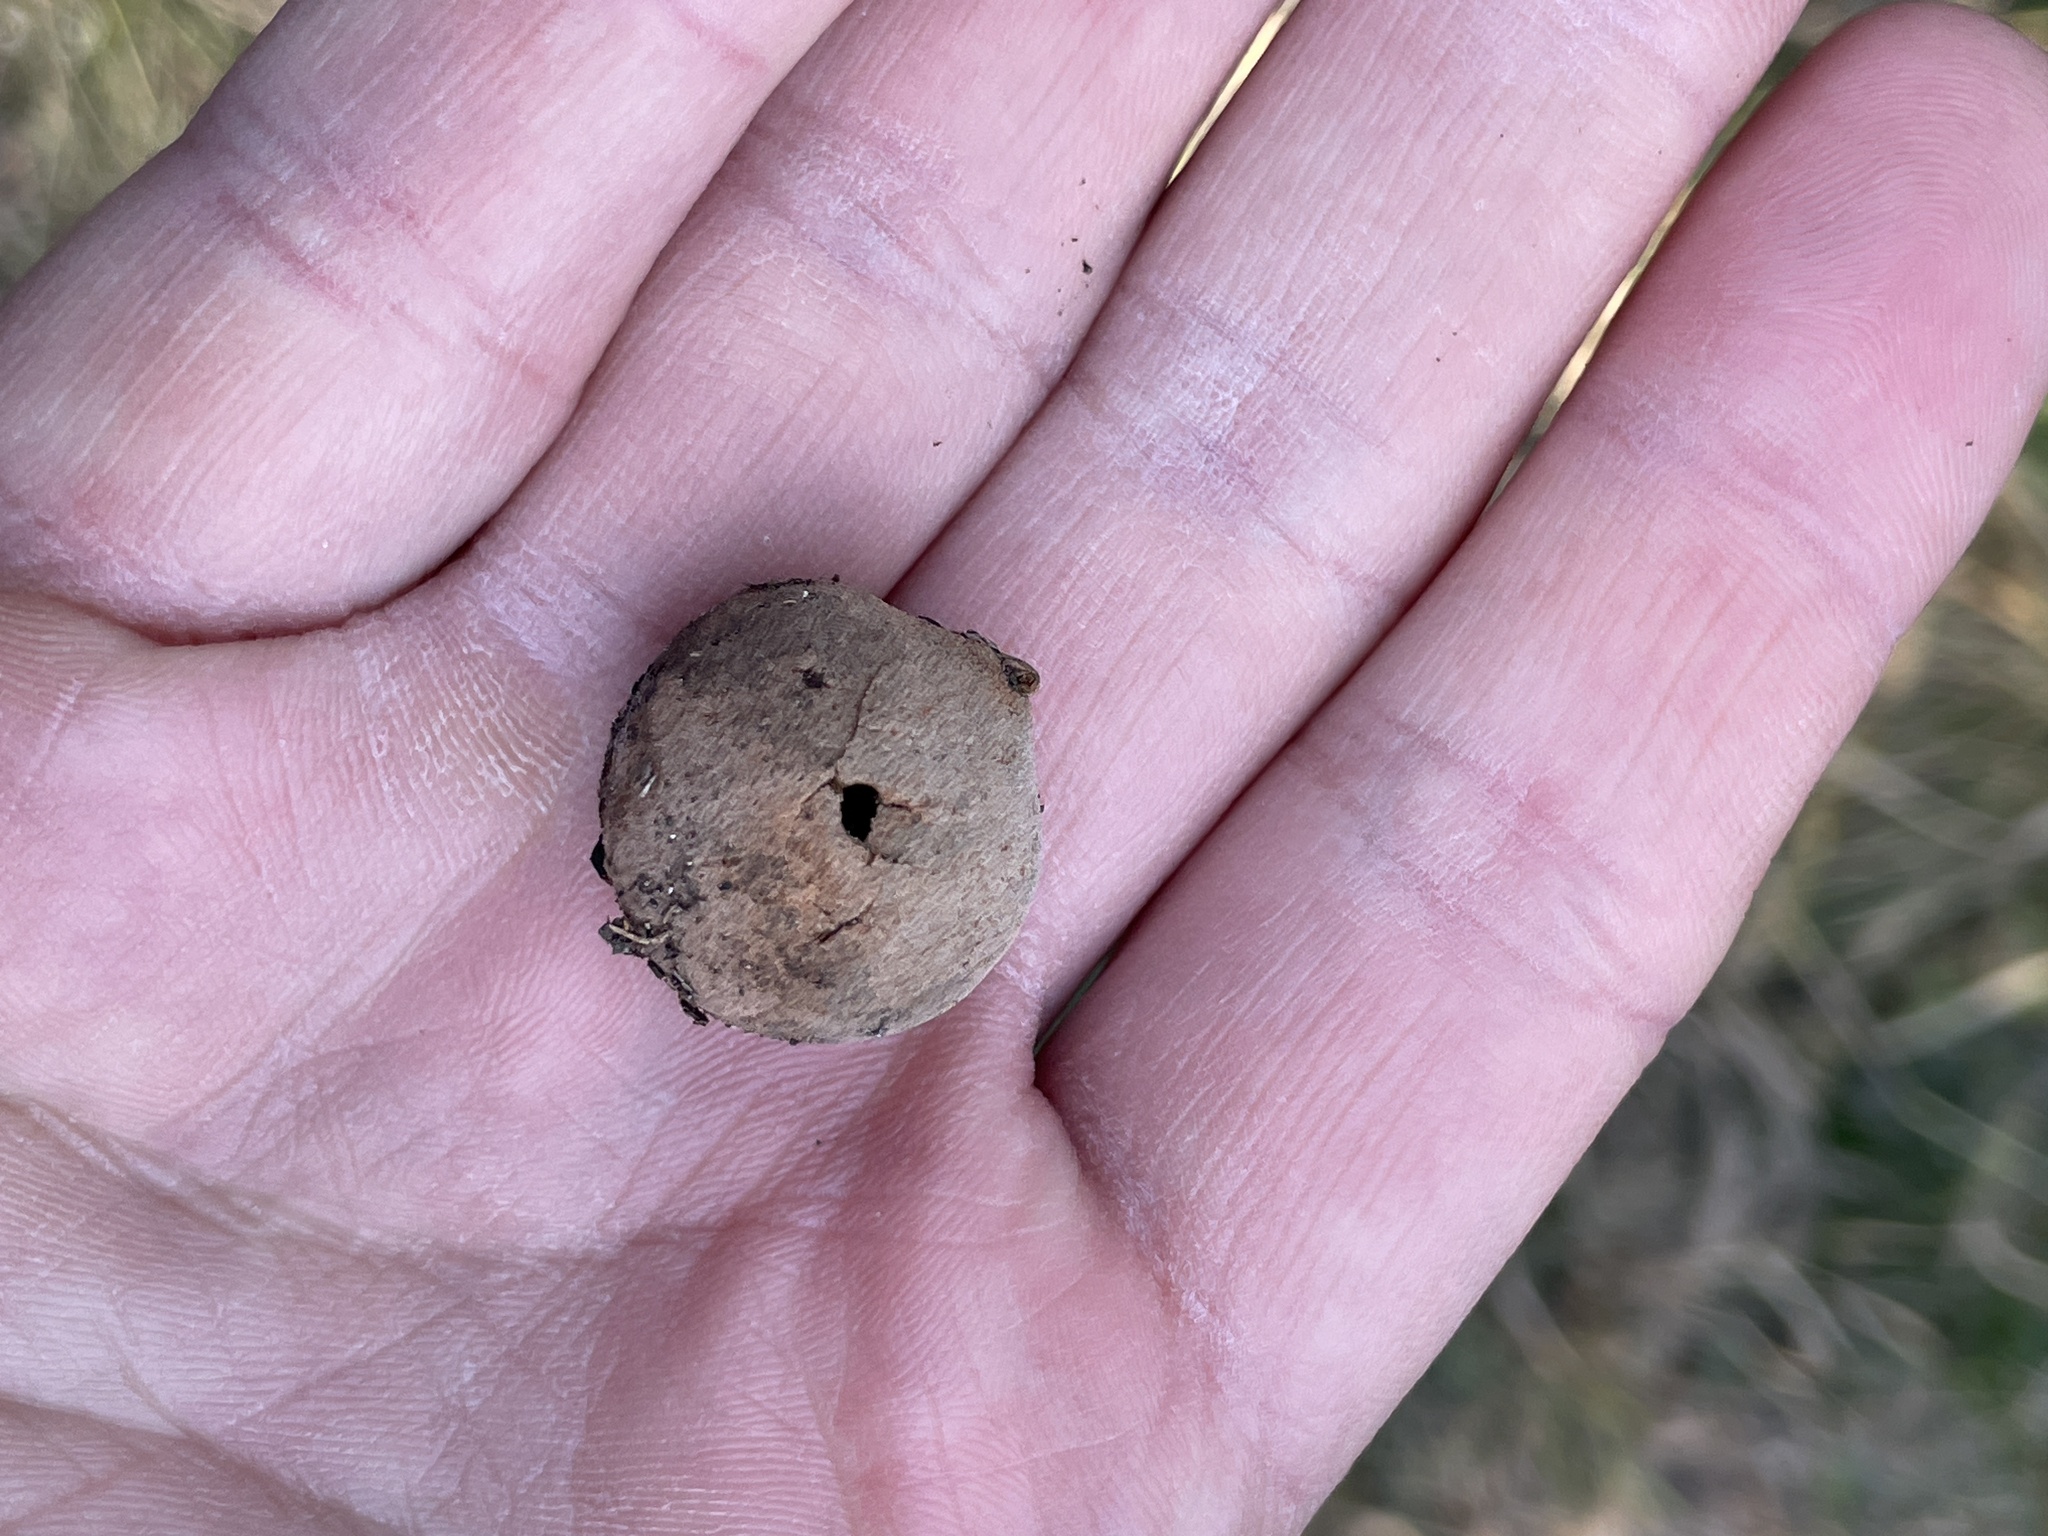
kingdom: Animalia
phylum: Arthropoda
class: Insecta
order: Hymenoptera
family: Cynipidae
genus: Disholcaspis
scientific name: Disholcaspis
